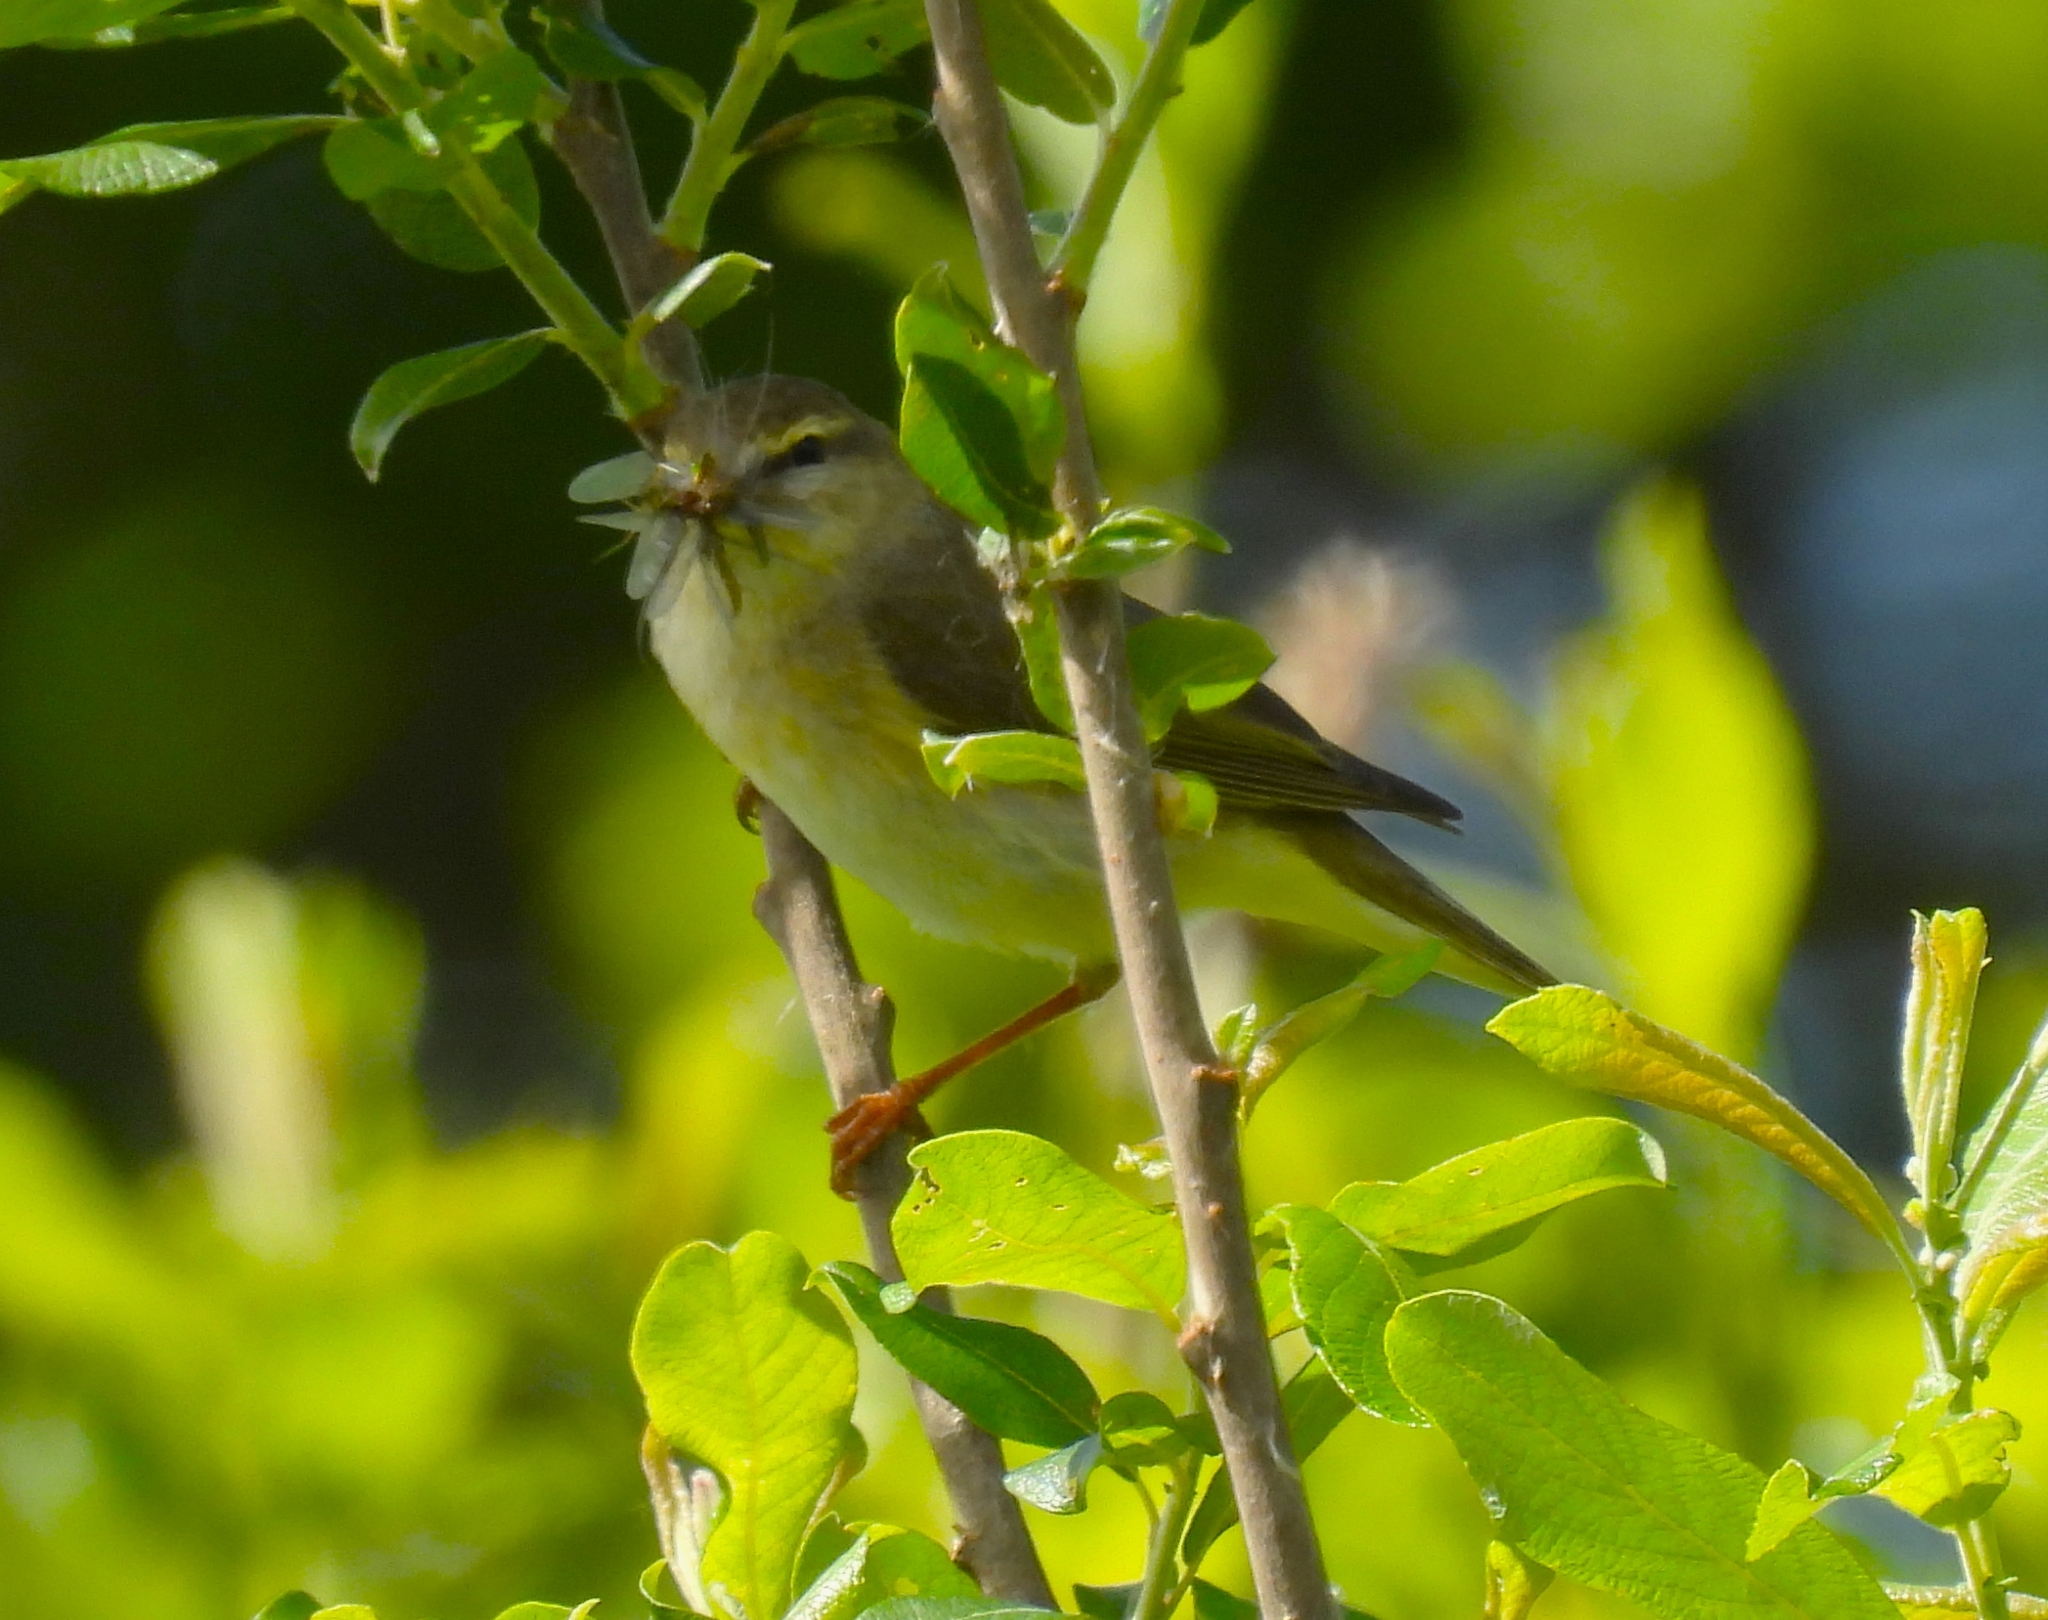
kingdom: Animalia
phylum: Chordata
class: Aves
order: Passeriformes
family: Phylloscopidae
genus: Phylloscopus
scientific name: Phylloscopus trochilus
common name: Willow warbler
